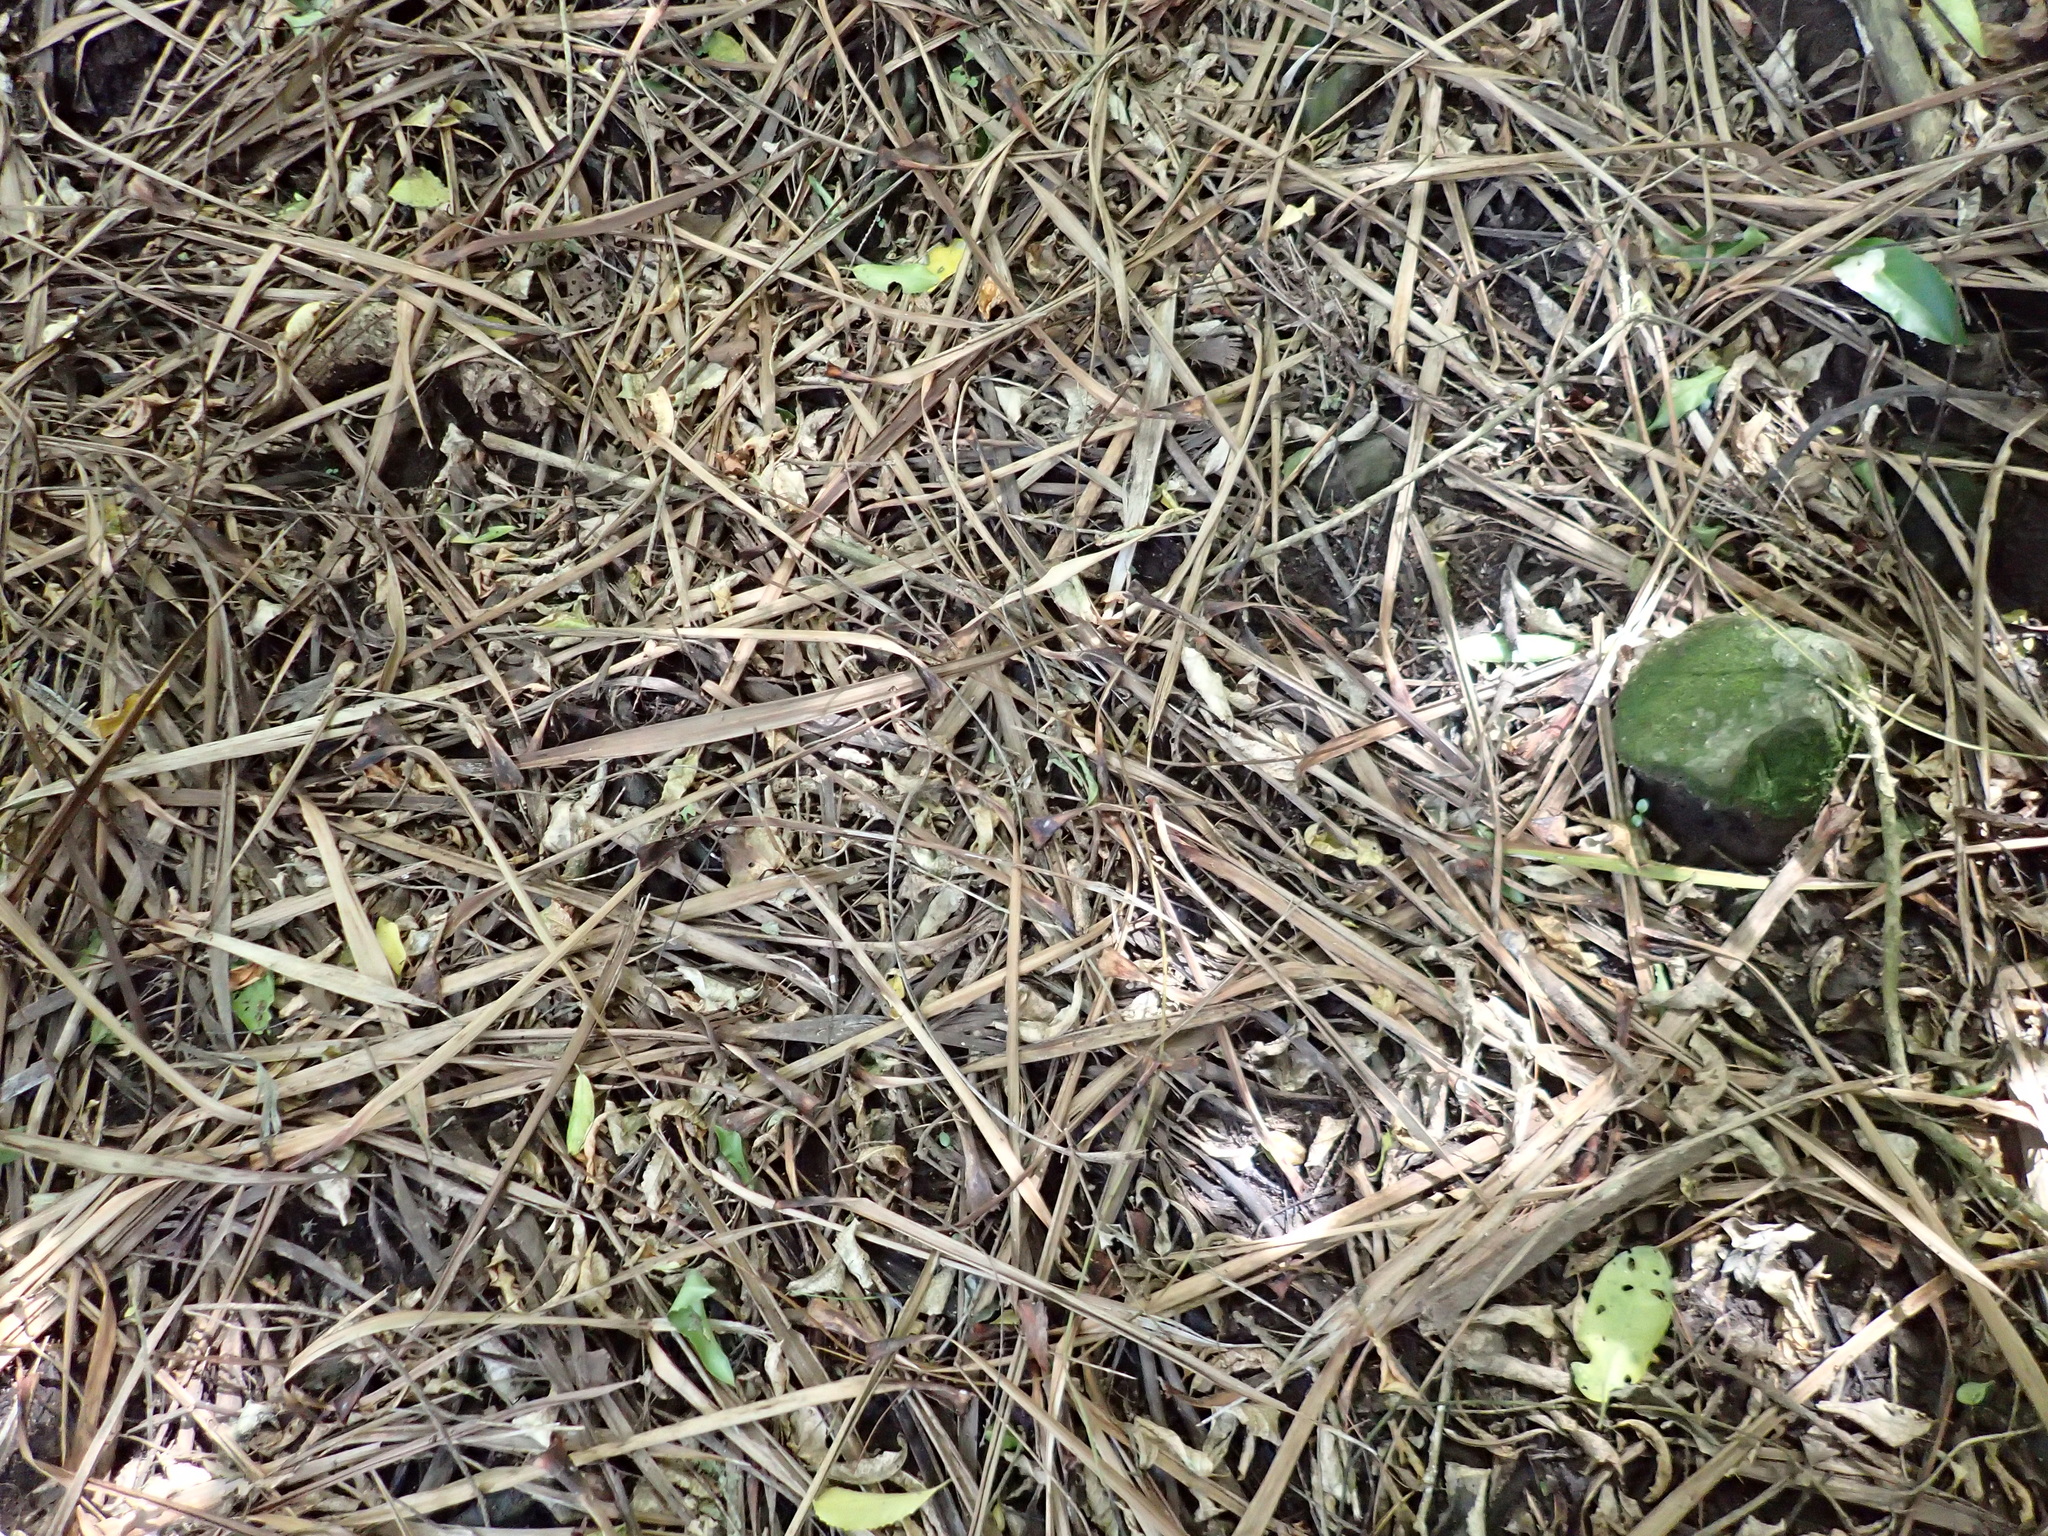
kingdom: Plantae
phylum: Tracheophyta
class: Liliopsida
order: Asparagales
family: Asparagaceae
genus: Cordyline
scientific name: Cordyline australis
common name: Cabbage-palm
